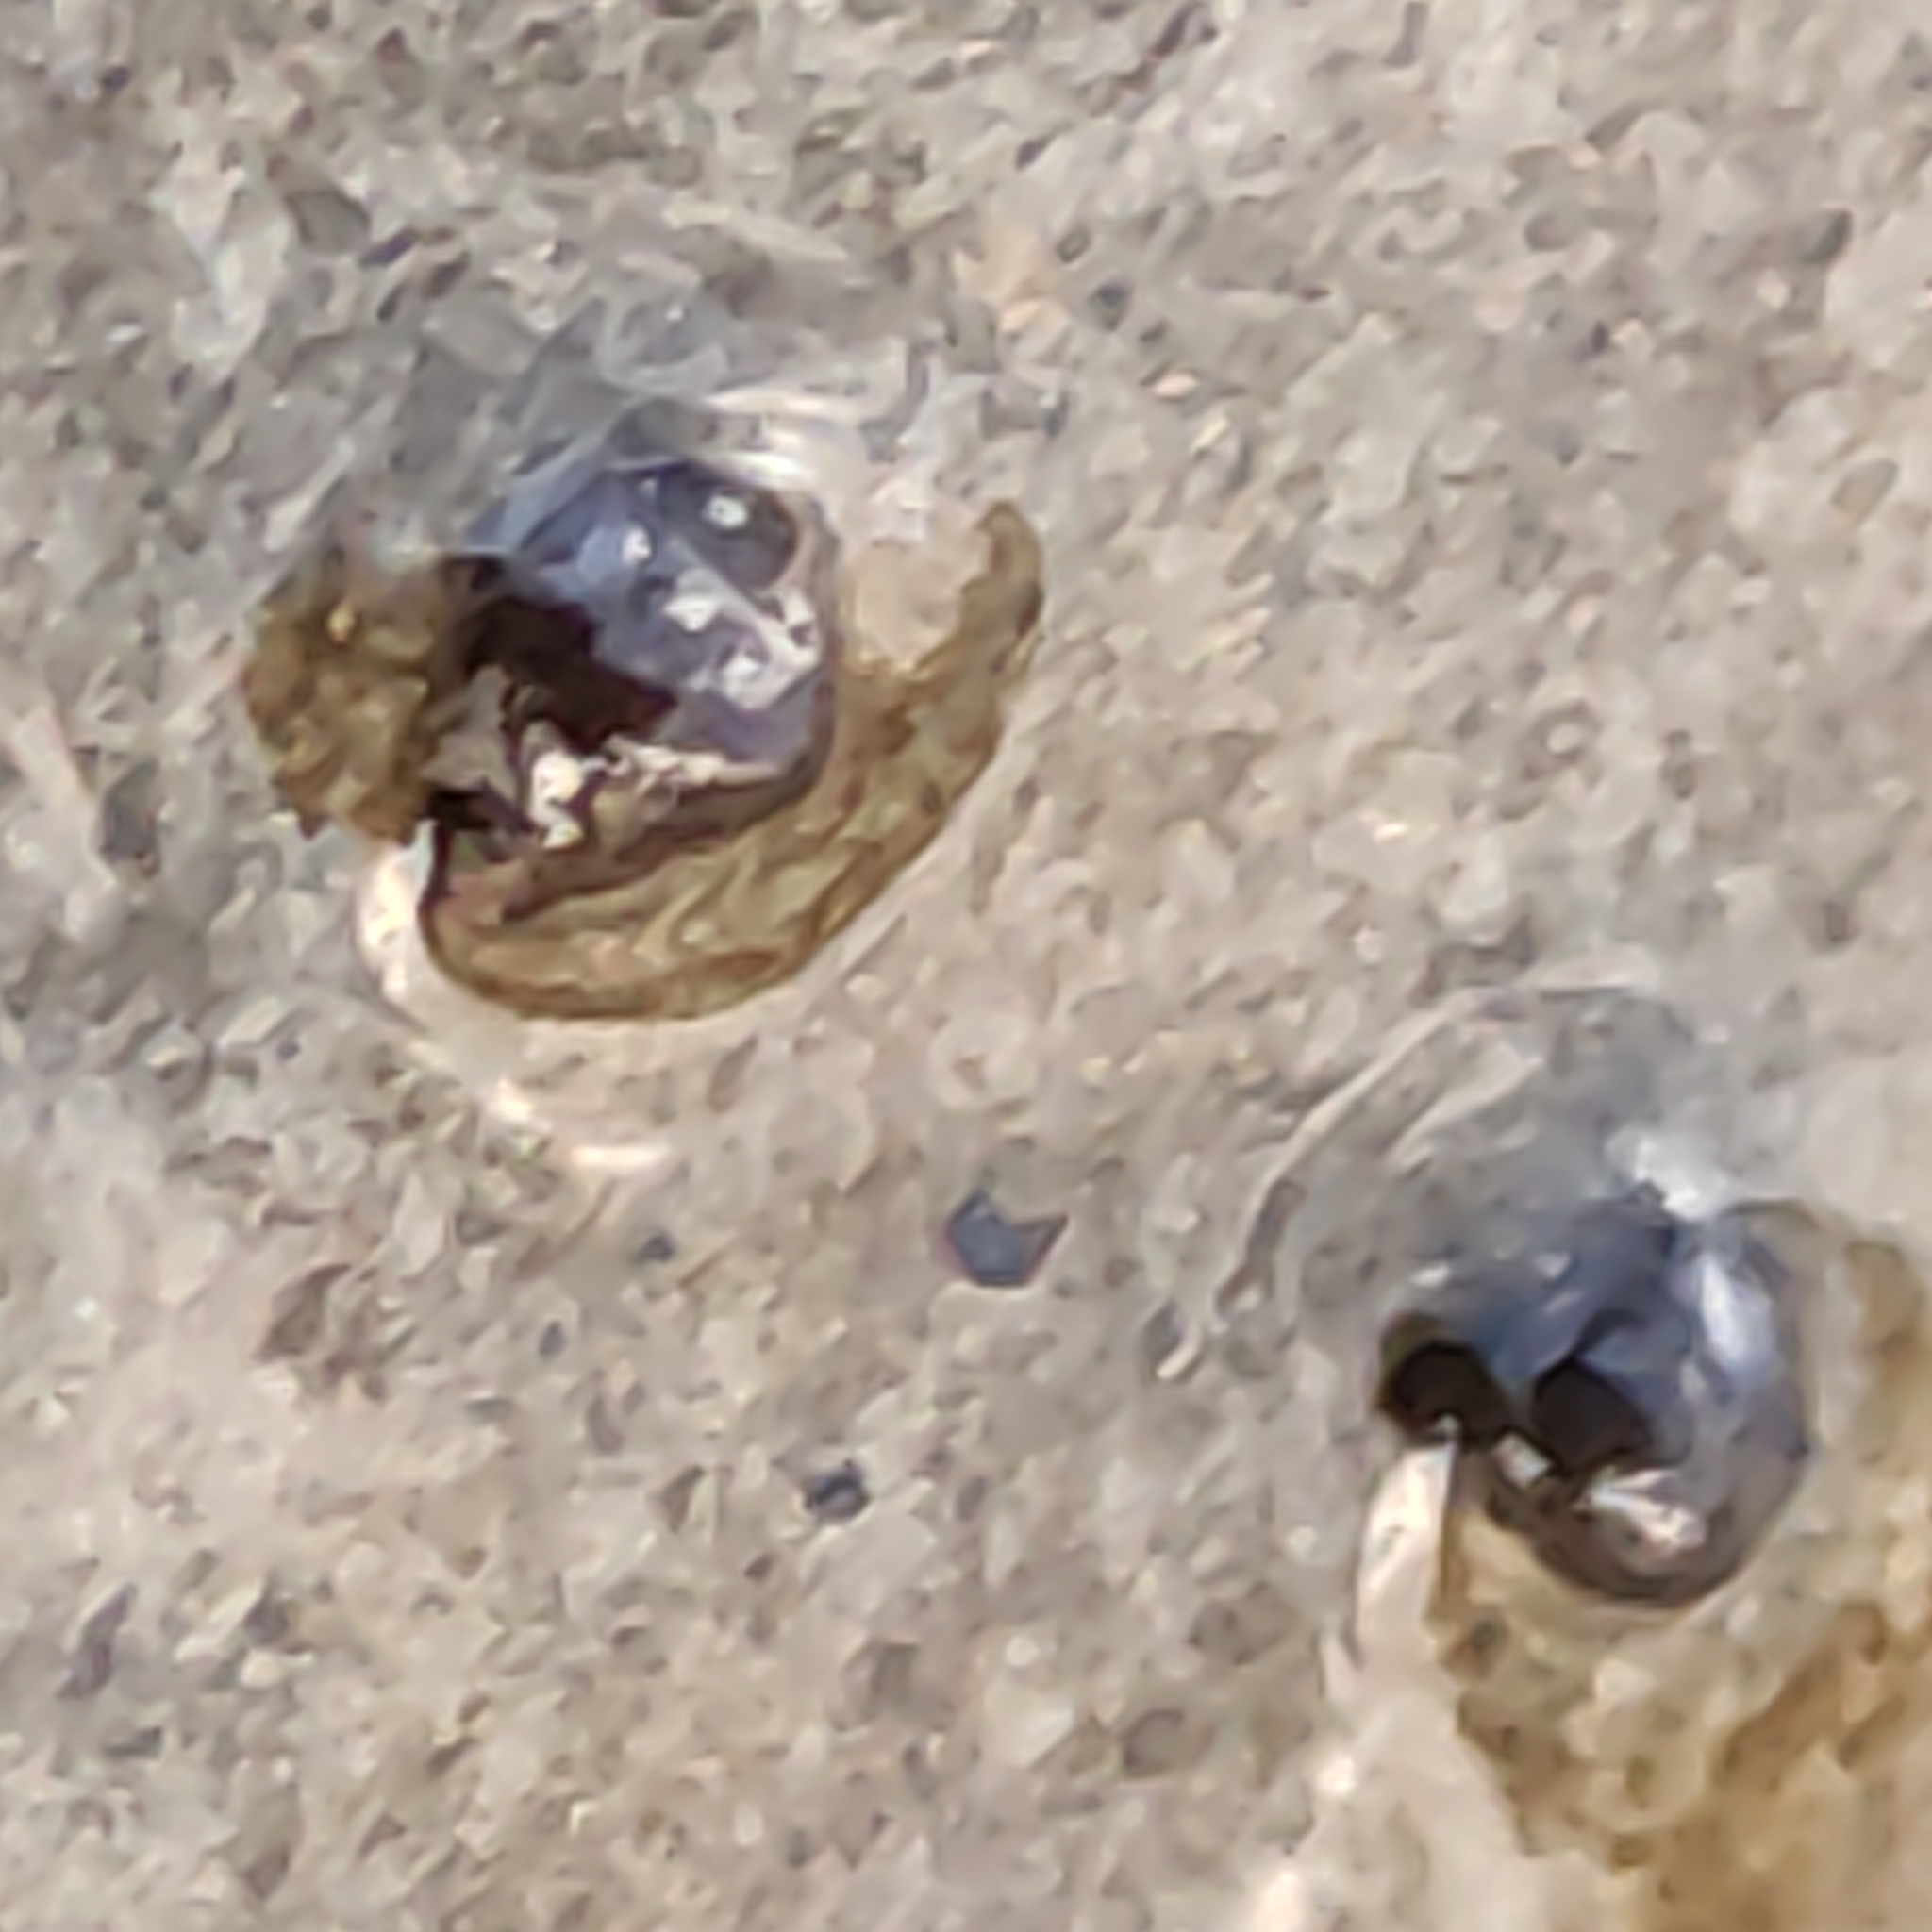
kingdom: Animalia
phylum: Mollusca
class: Gastropoda
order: Littorinimorpha
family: Tateidae
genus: Potamopyrgus
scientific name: Potamopyrgus antipodarum
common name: Jenkins' spire snail
